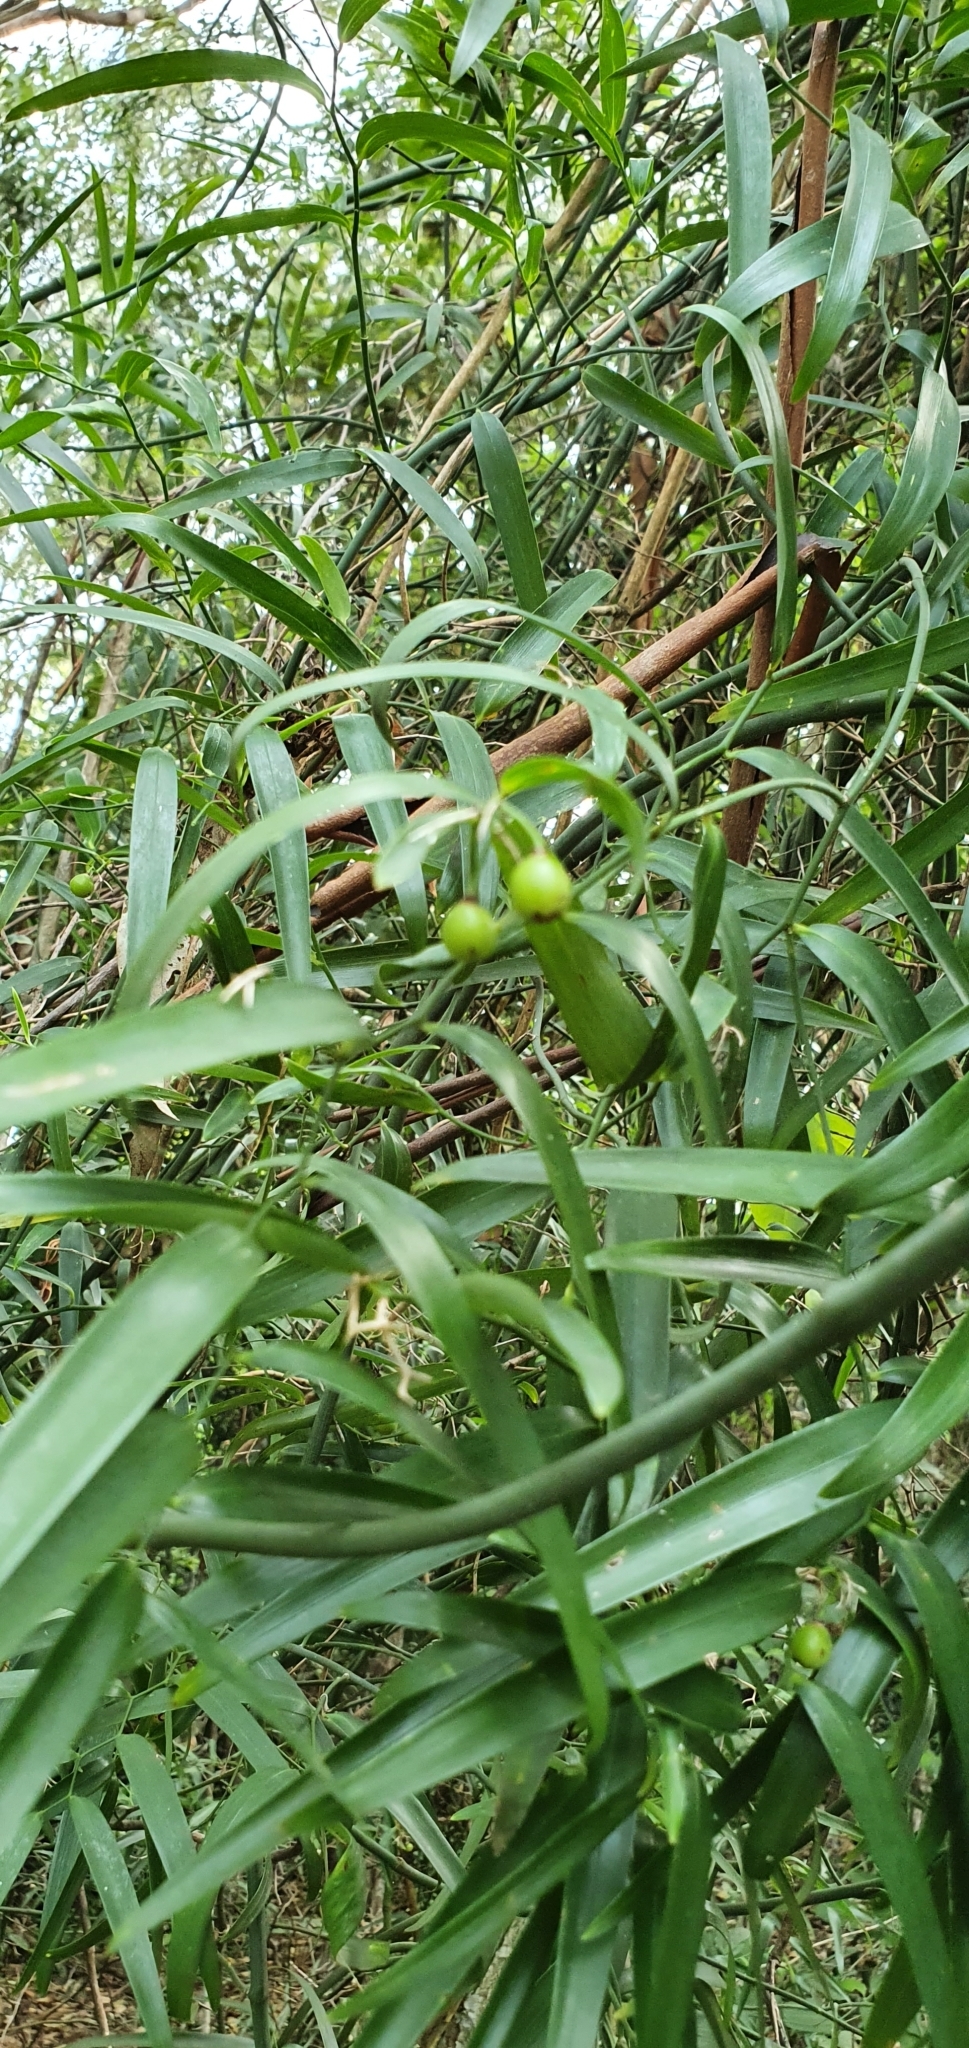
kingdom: Plantae
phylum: Tracheophyta
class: Liliopsida
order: Asparagales
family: Asphodelaceae
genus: Geitonoplesium
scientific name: Geitonoplesium cymosum
